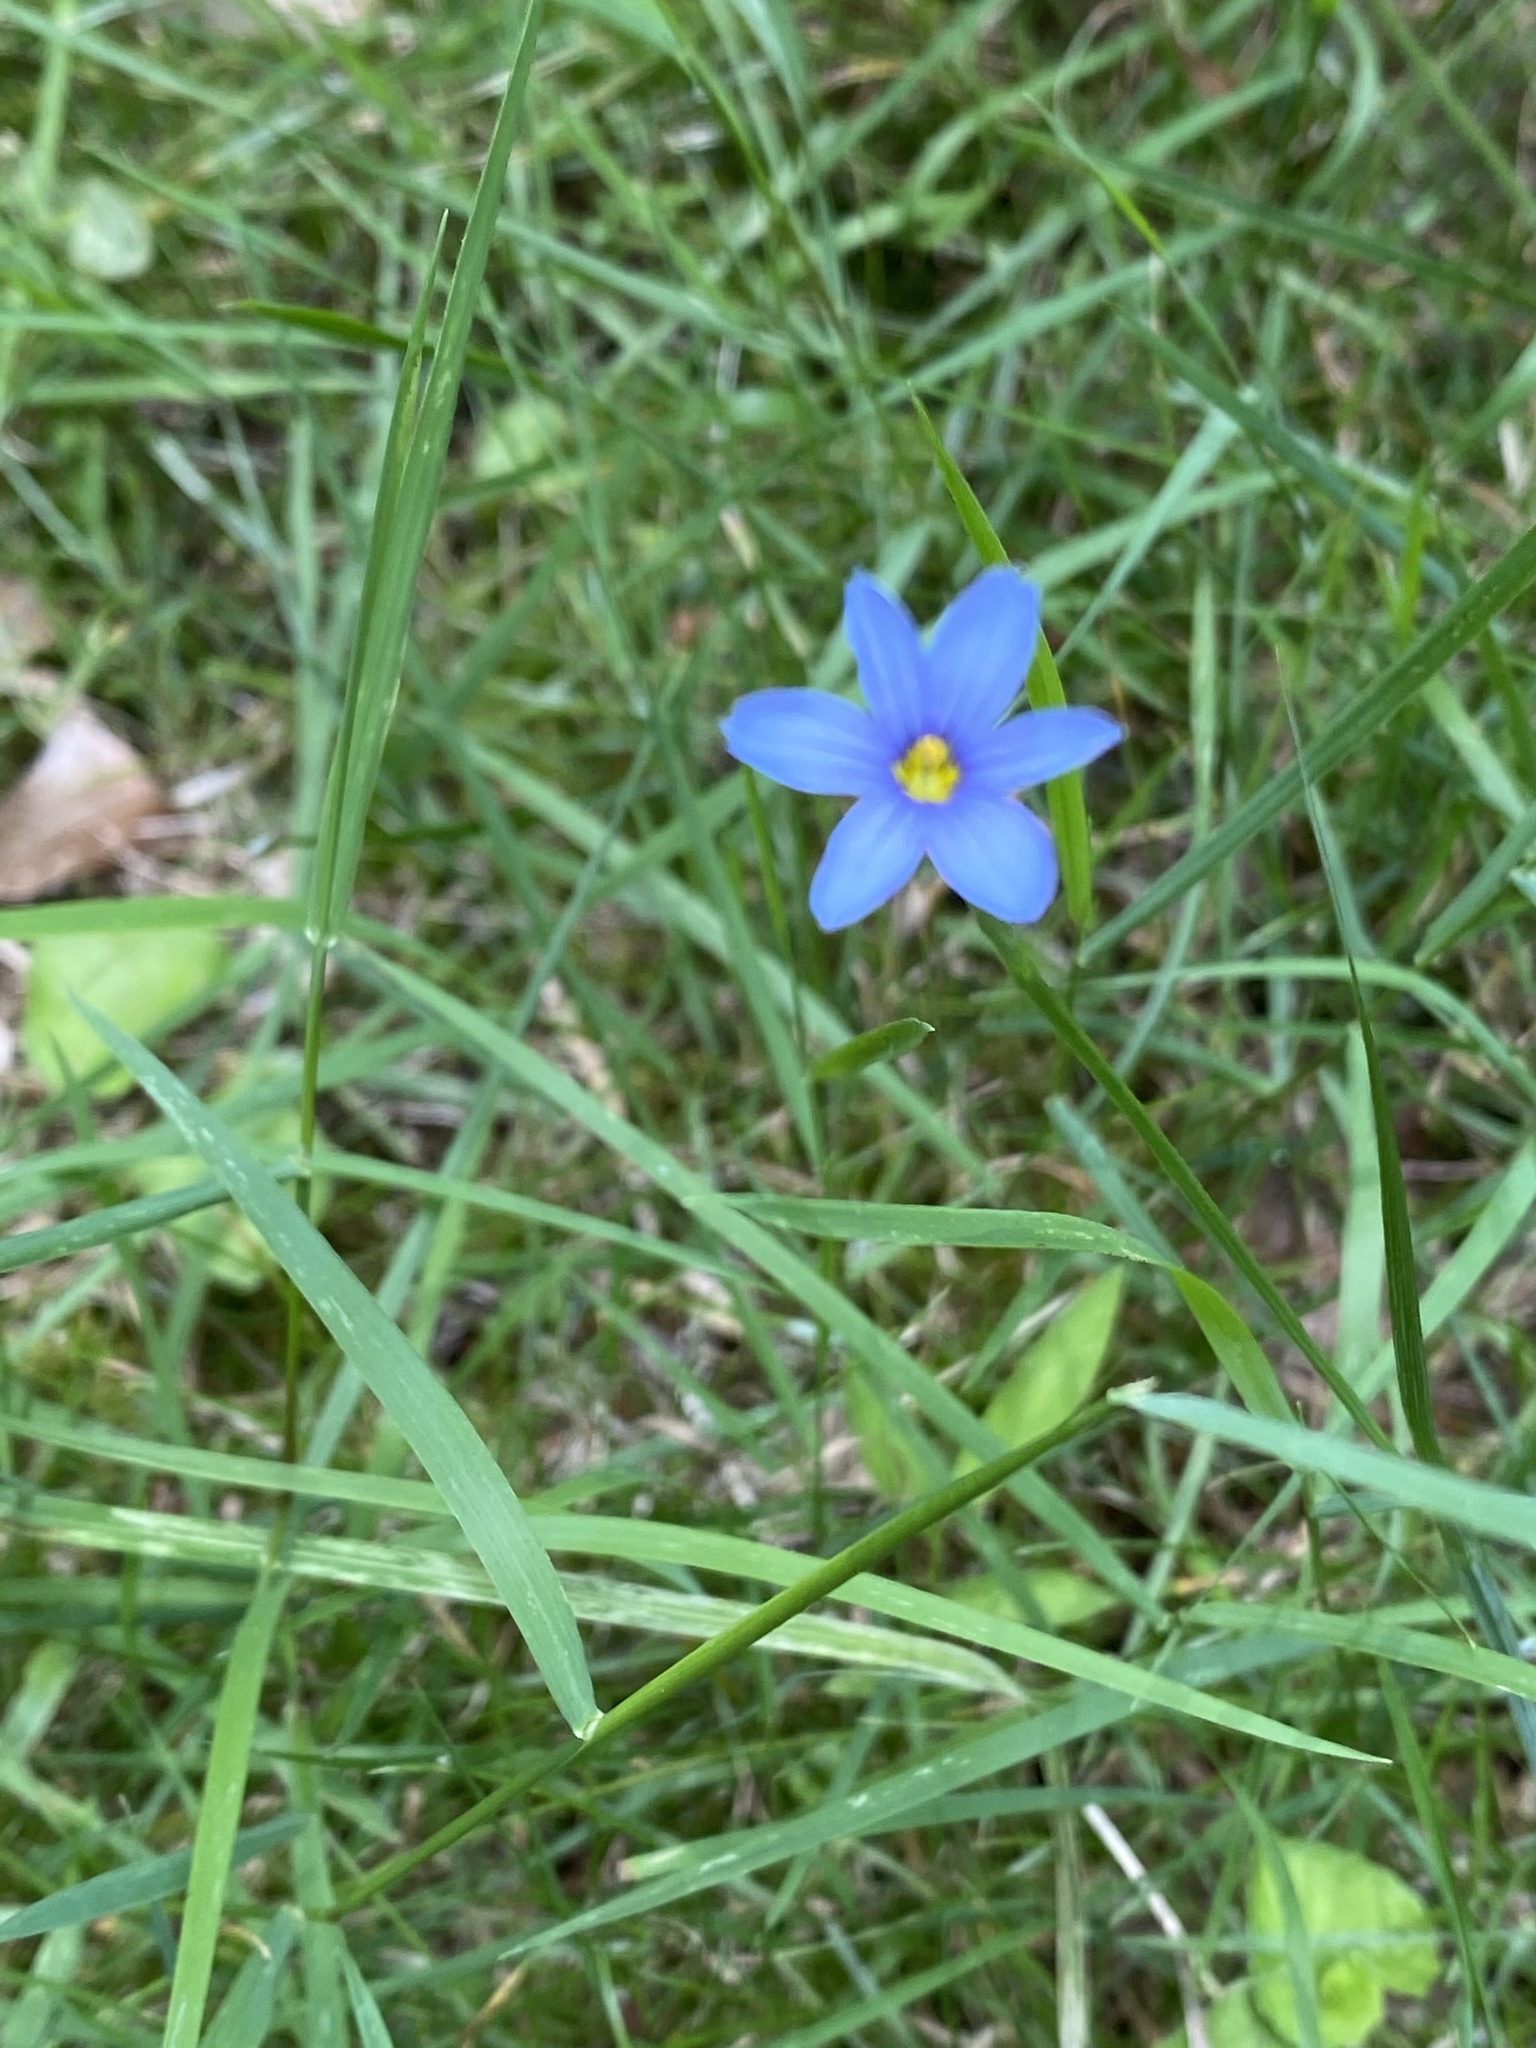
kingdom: Plantae
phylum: Tracheophyta
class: Liliopsida
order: Asparagales
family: Iridaceae
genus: Sisyrinchium
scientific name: Sisyrinchium angustifolium
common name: Narrow-leaf blue-eyed-grass
